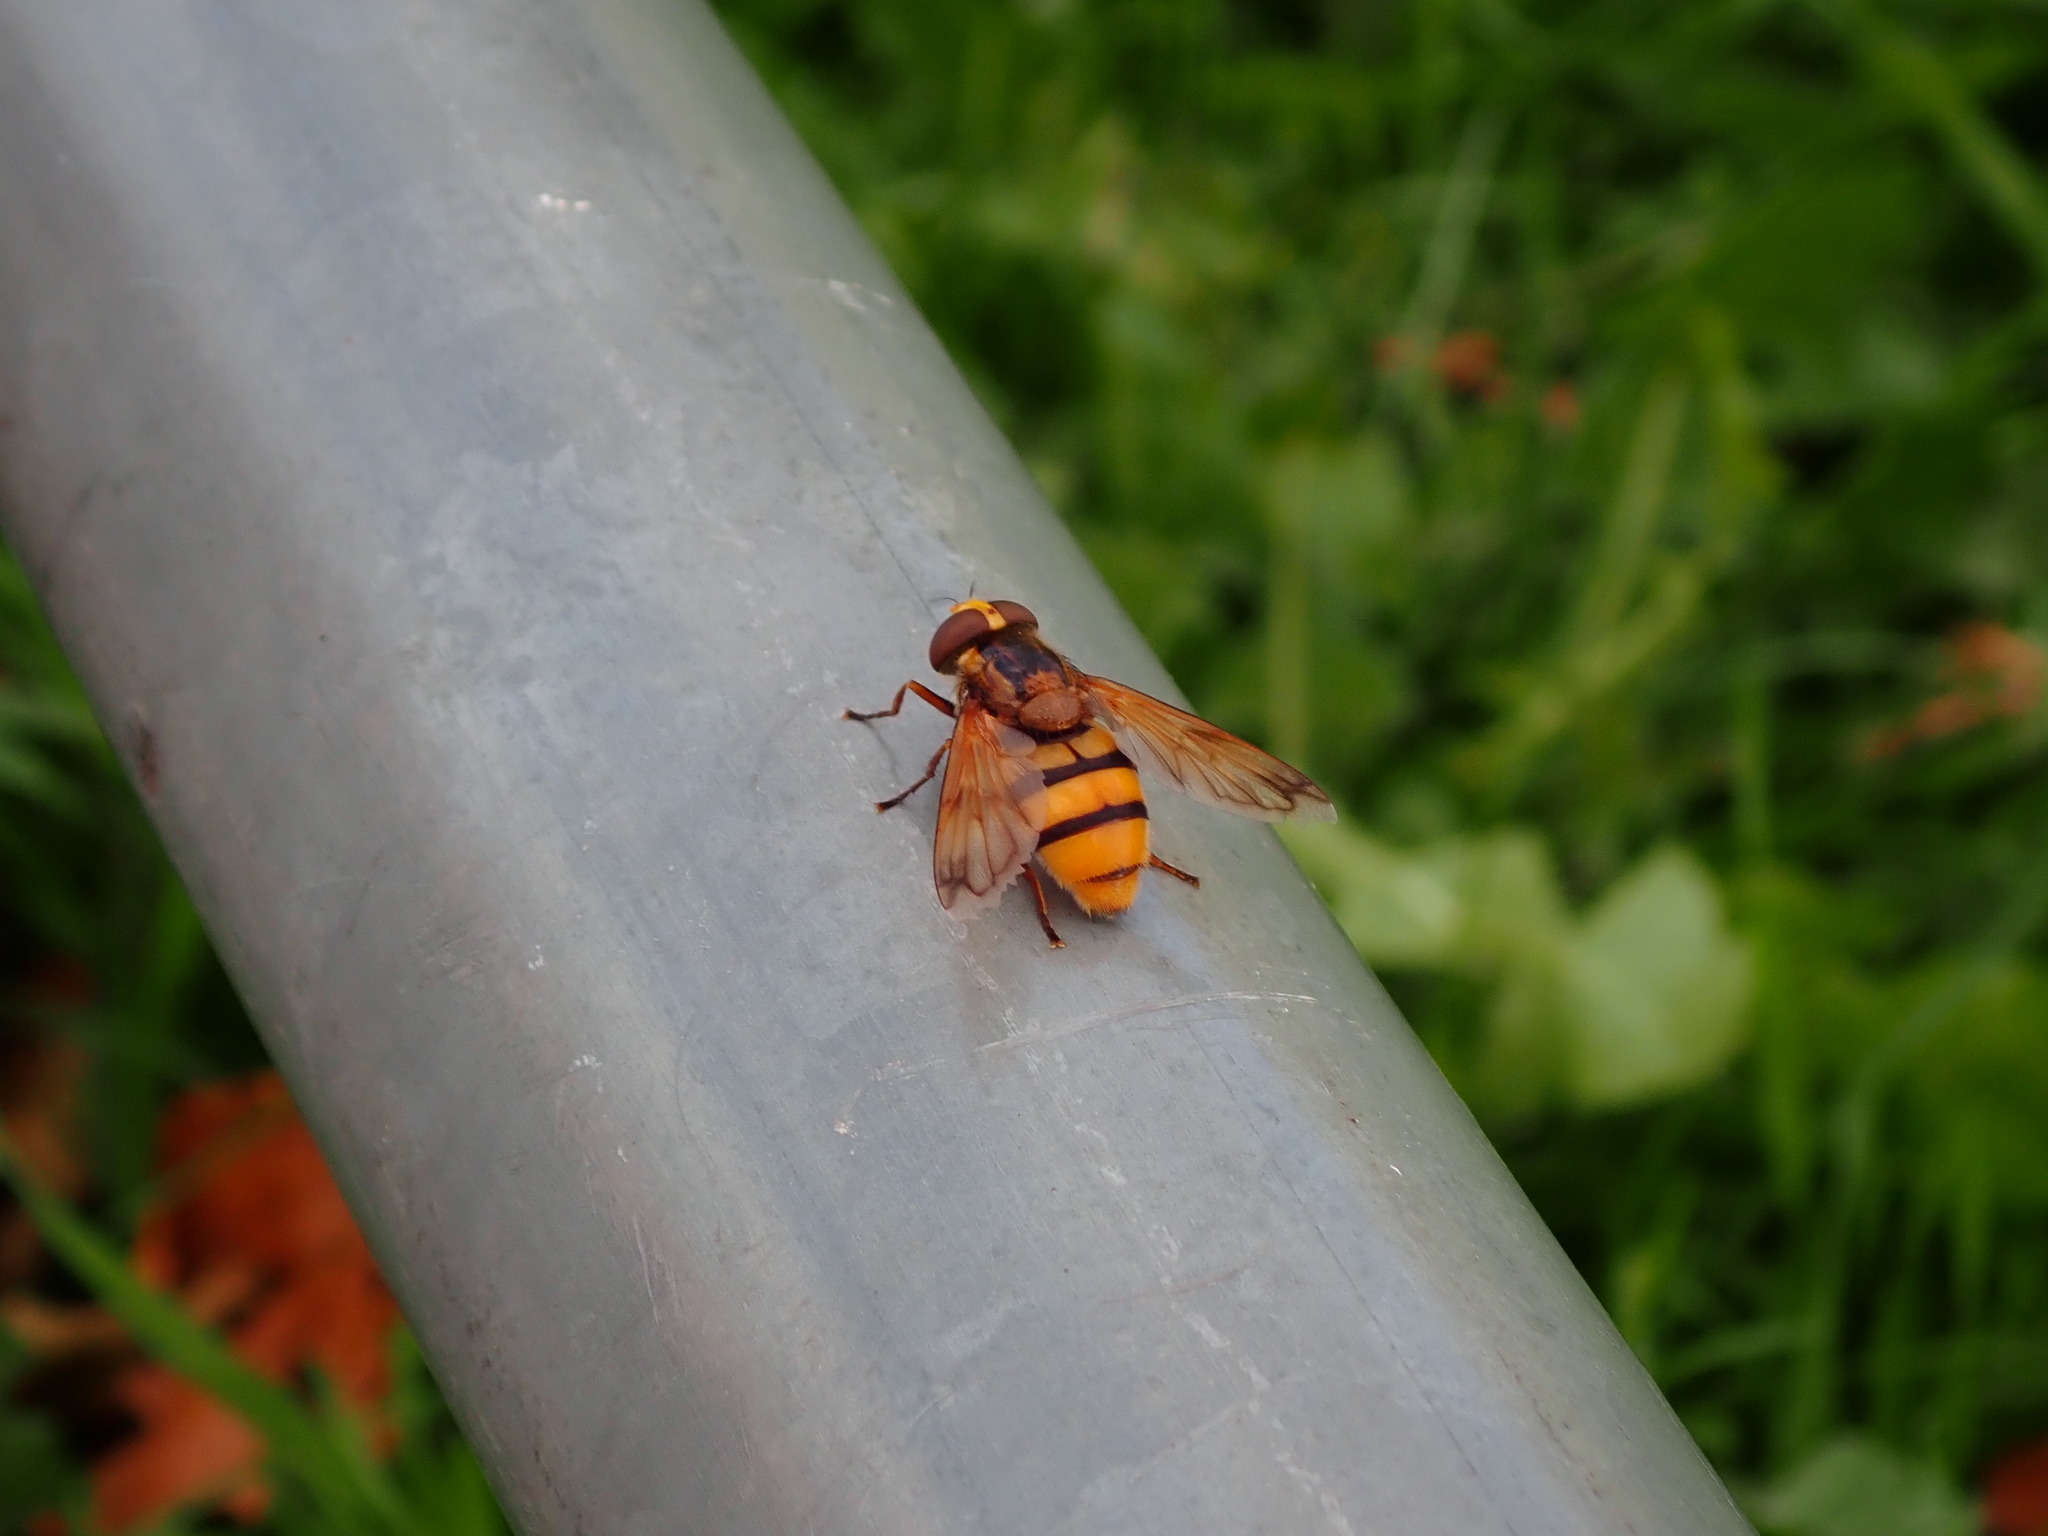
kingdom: Animalia
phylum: Arthropoda
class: Insecta
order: Diptera
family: Syrphidae
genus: Volucella
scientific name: Volucella inanis
